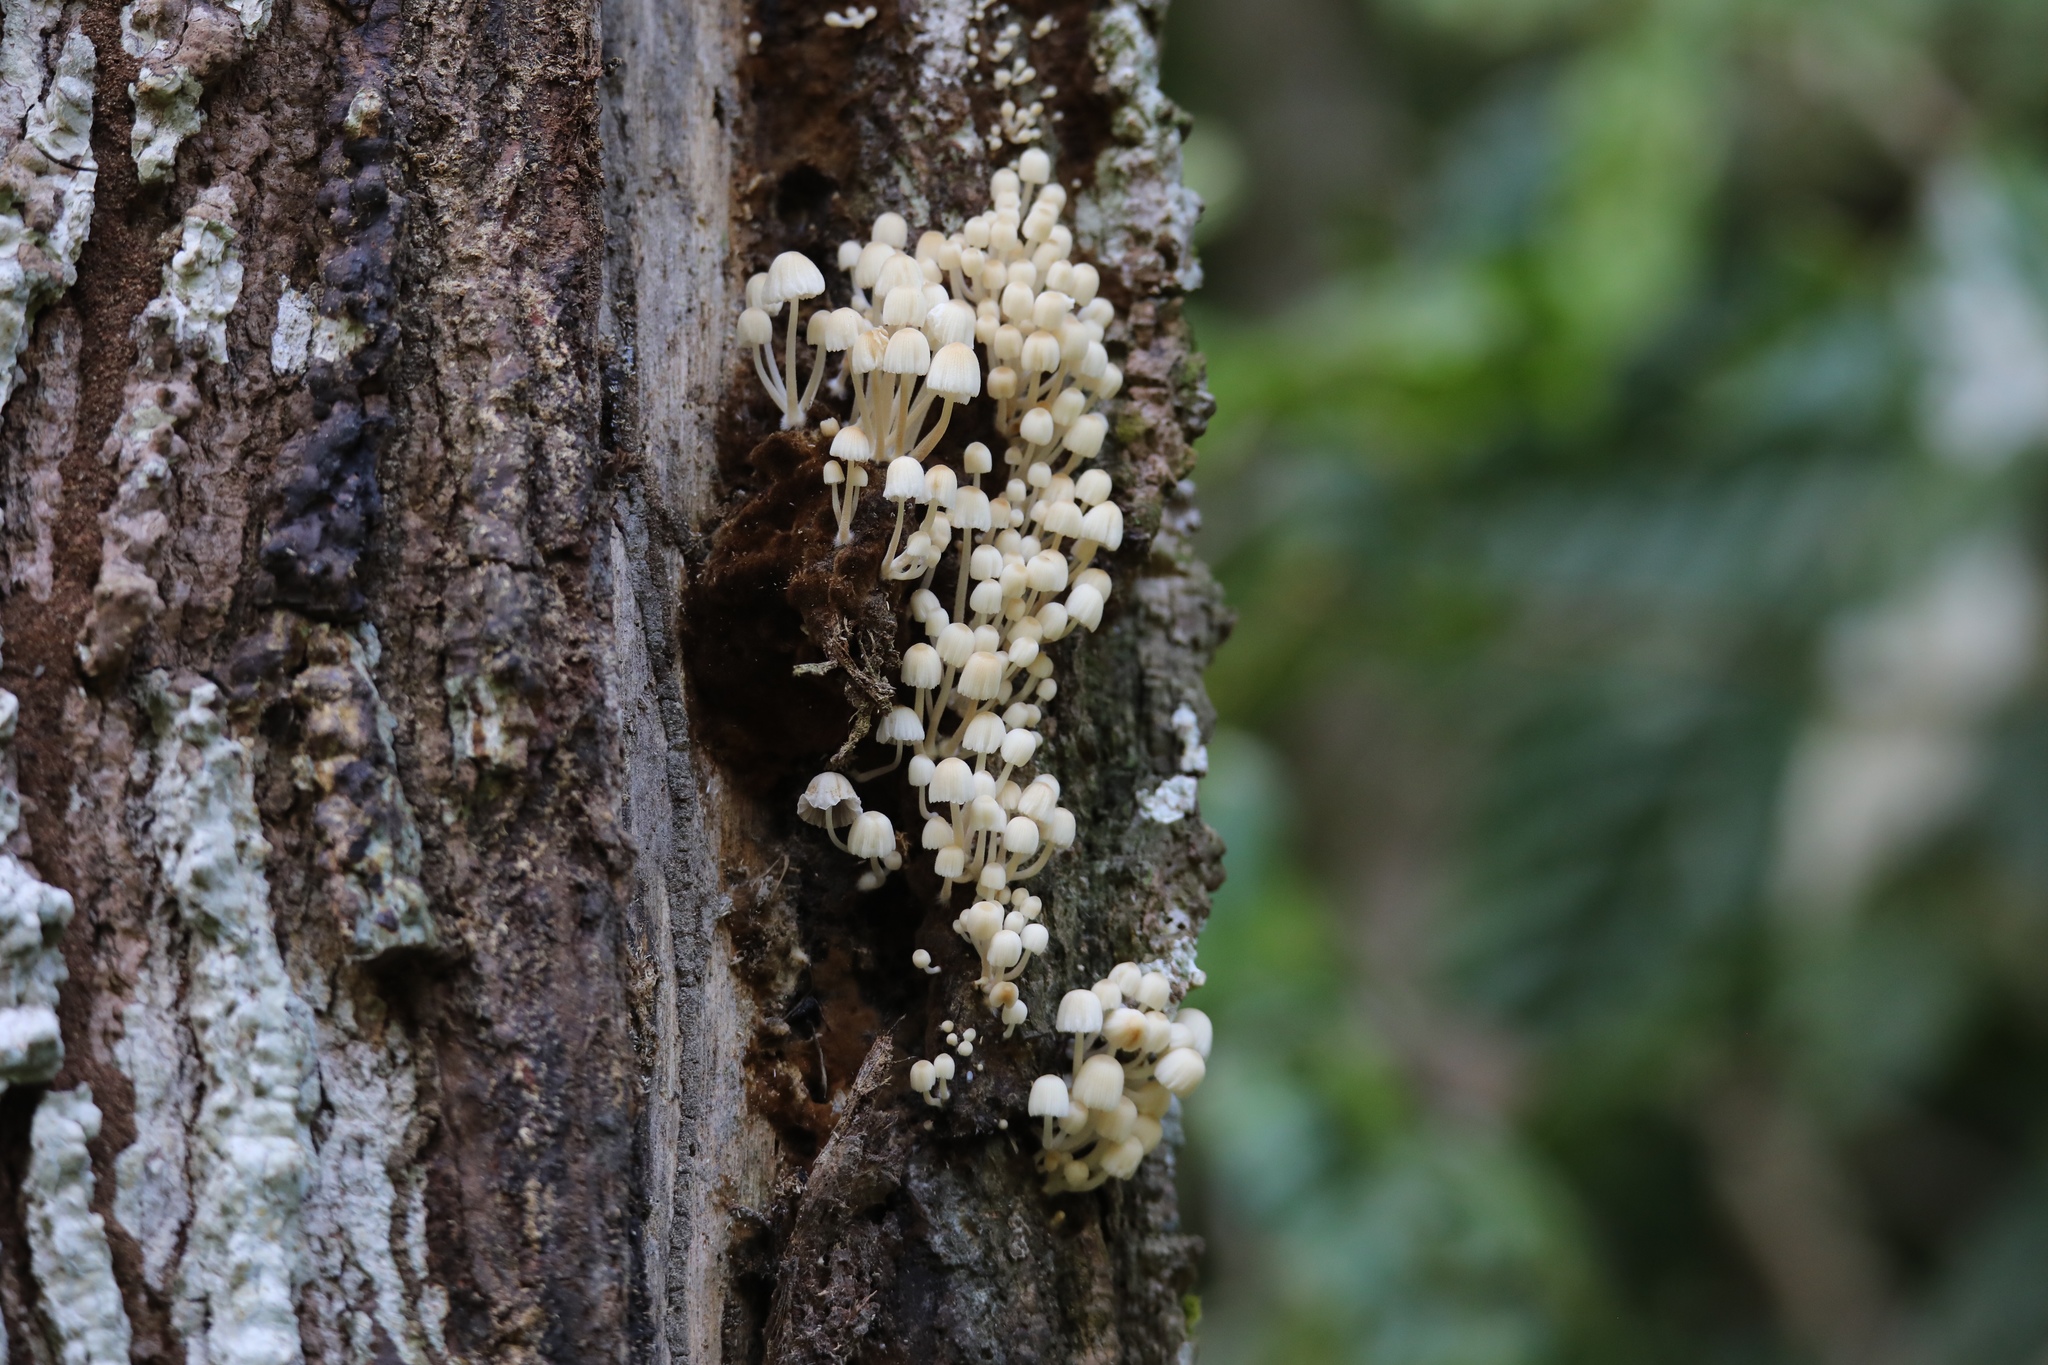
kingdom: Fungi
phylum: Basidiomycota
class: Agaricomycetes
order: Agaricales
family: Psathyrellaceae
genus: Coprinellus
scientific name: Coprinellus disseminatus
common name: Fairies' bonnets
